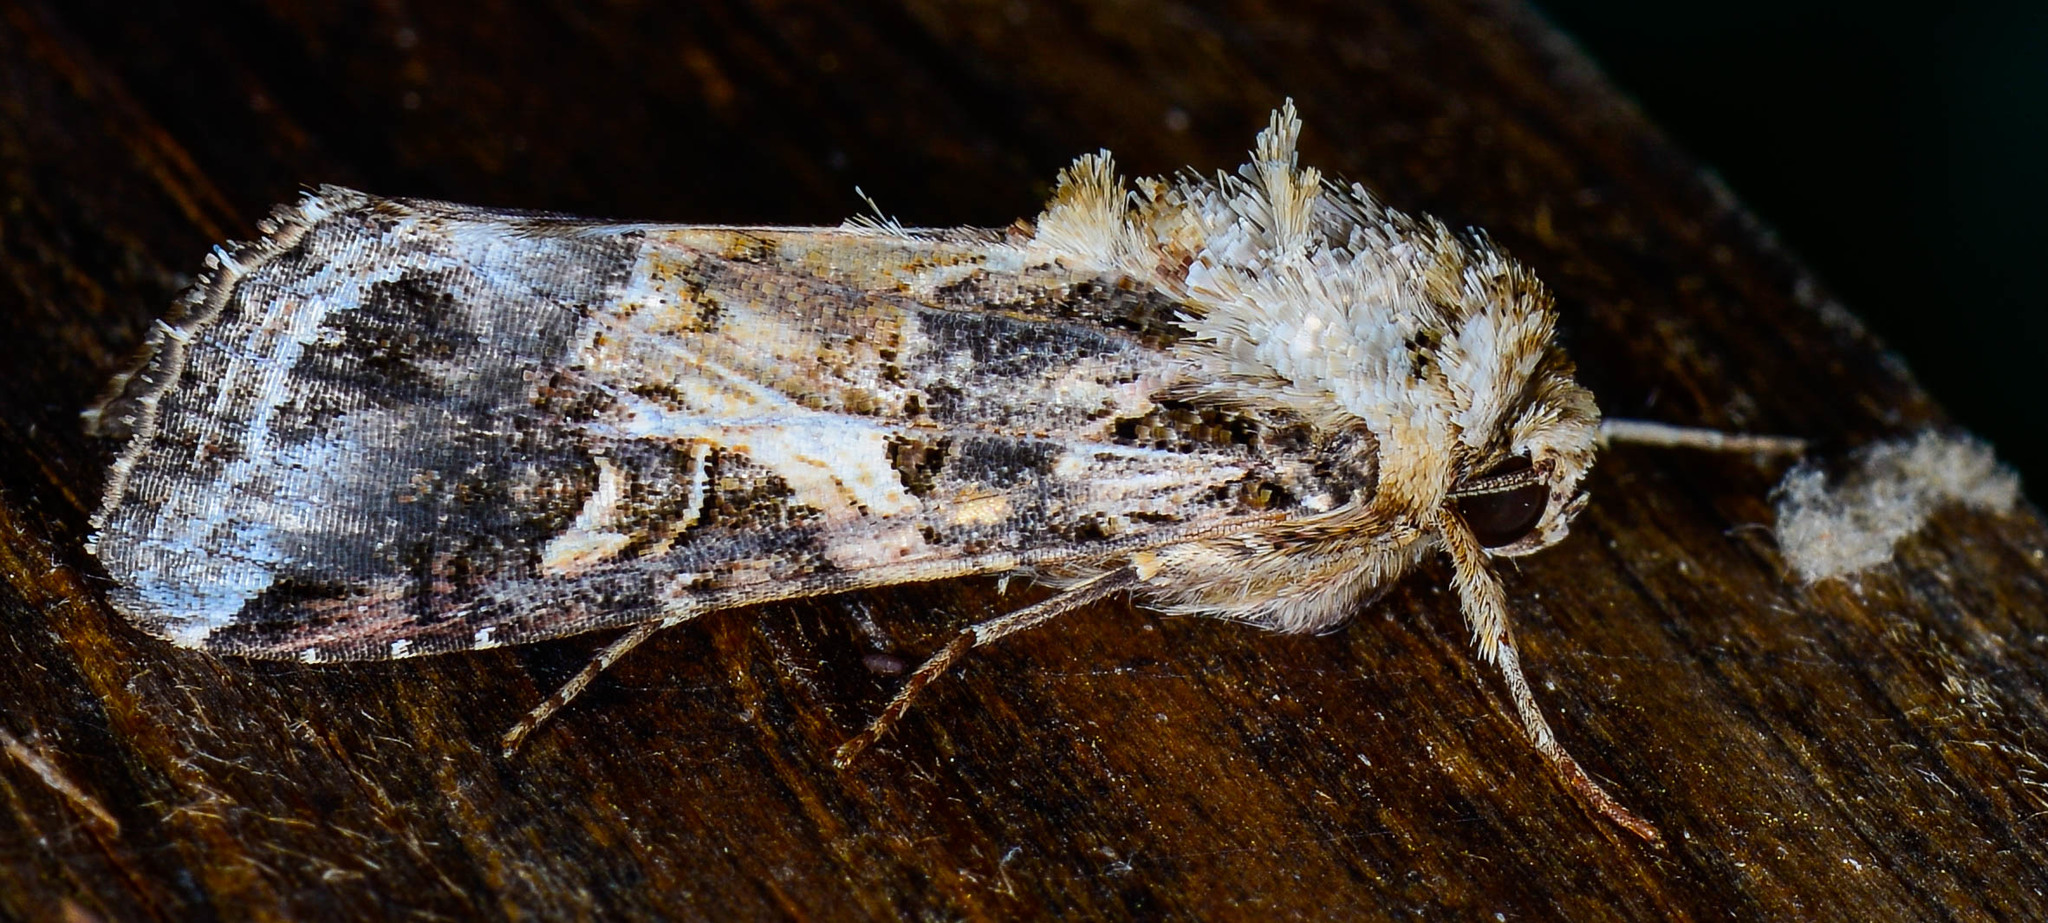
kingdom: Animalia
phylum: Arthropoda
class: Insecta
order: Lepidoptera
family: Noctuidae
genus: Spodoptera
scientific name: Spodoptera ornithogalli
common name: Yellow-striped armyworm
